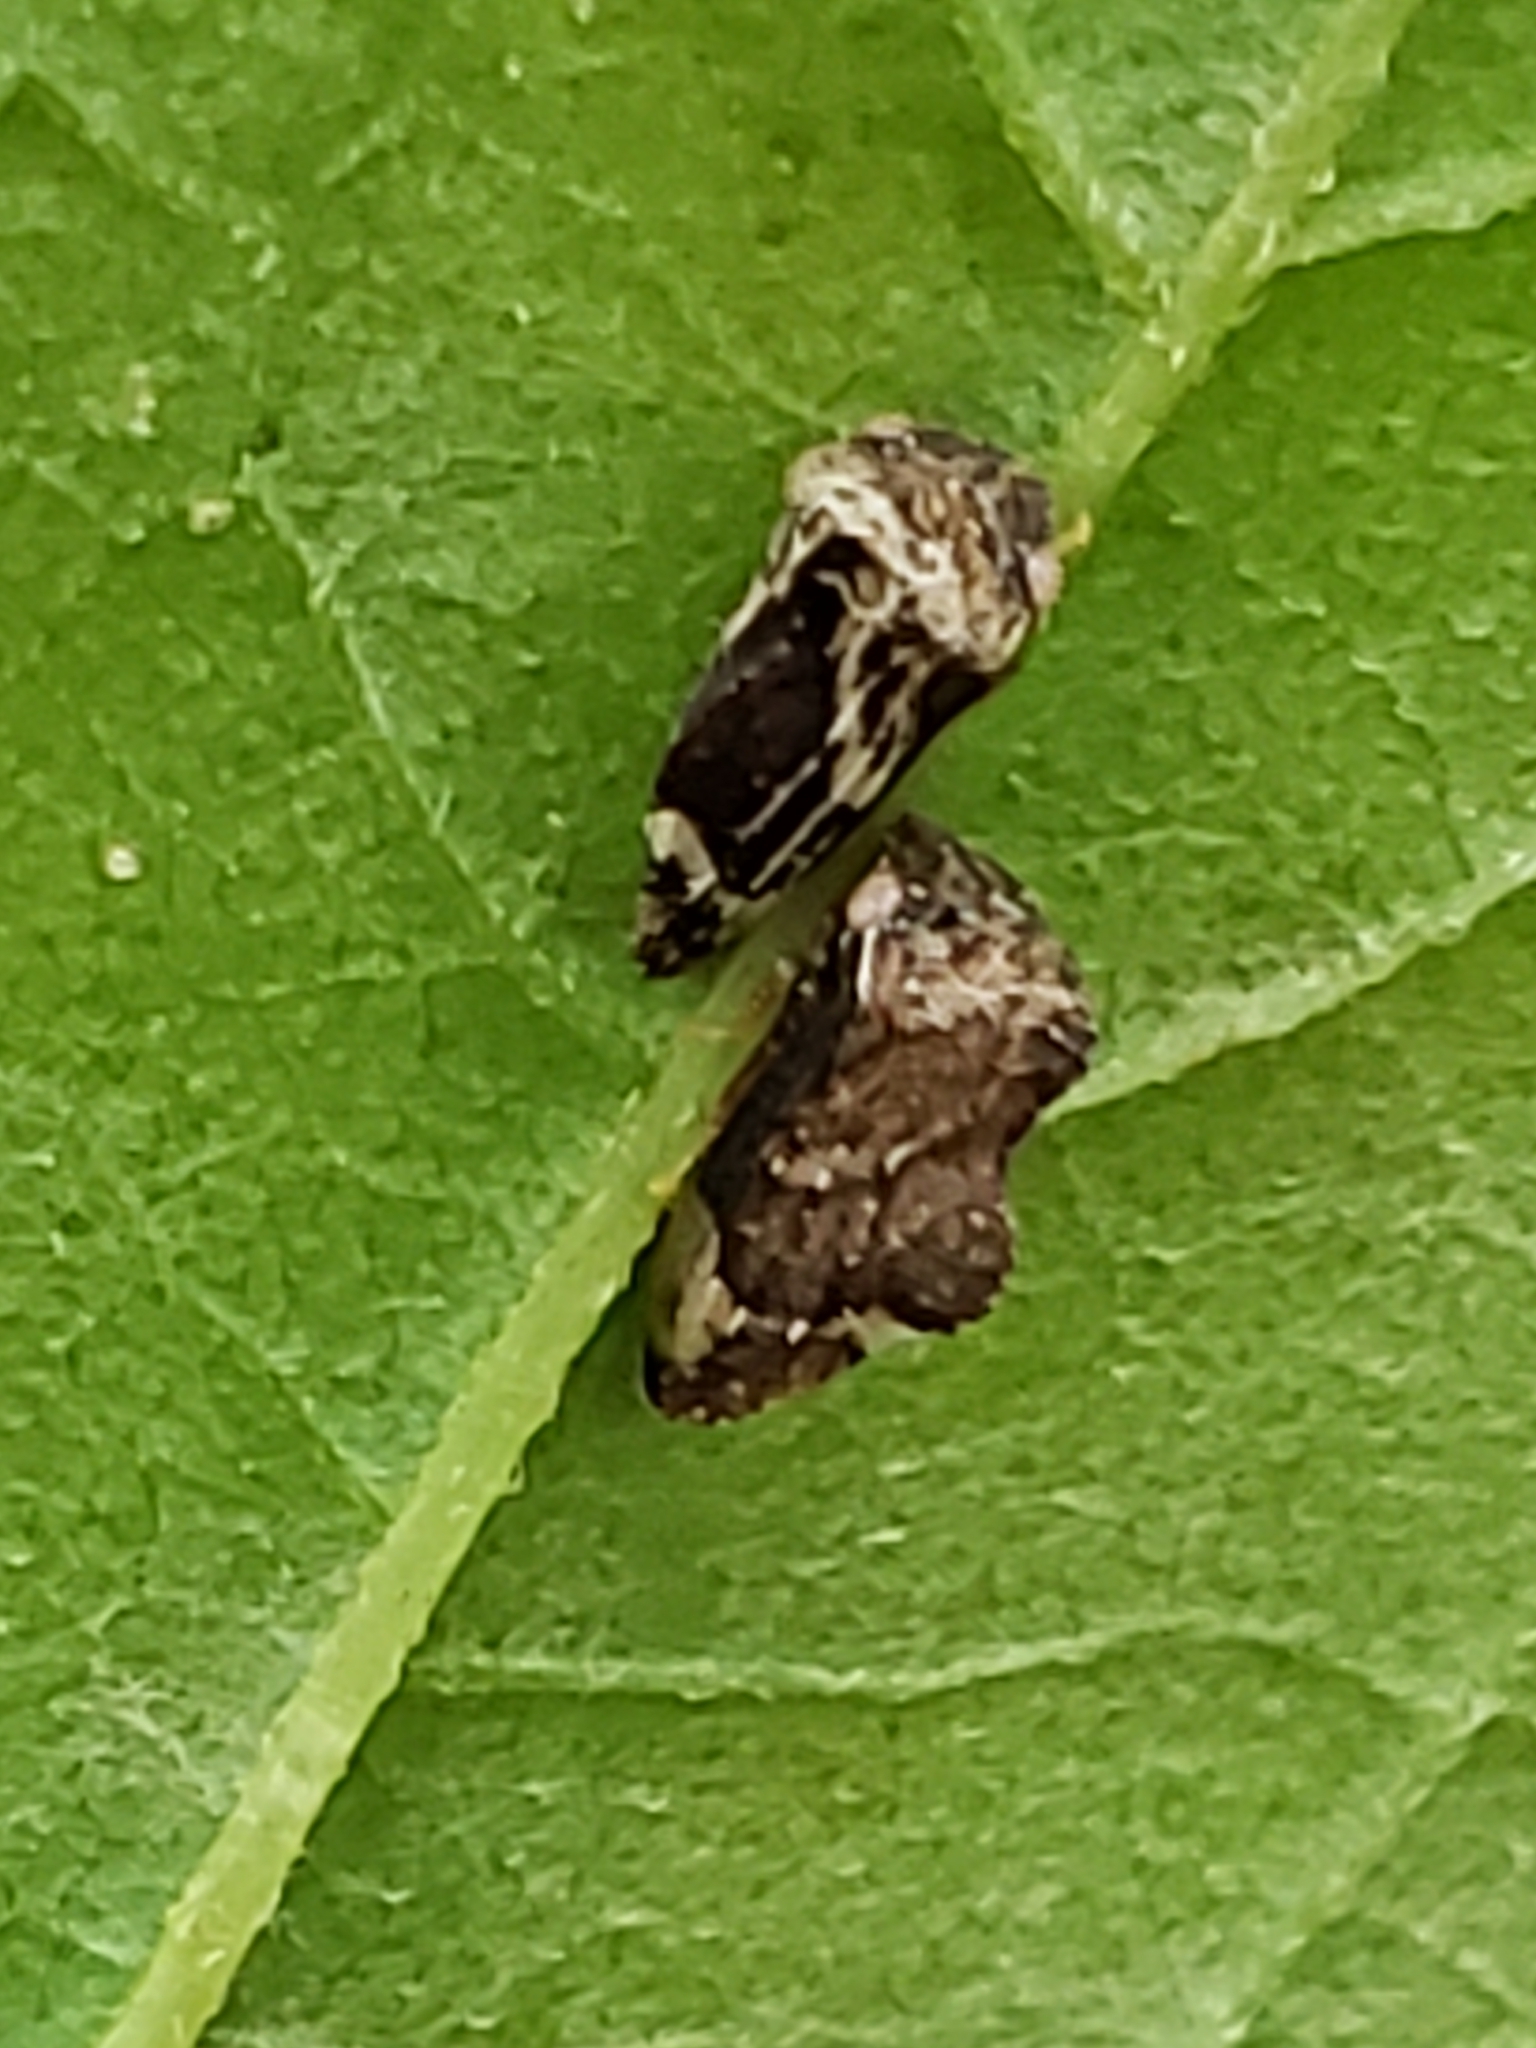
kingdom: Animalia
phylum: Arthropoda
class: Insecta
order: Hemiptera
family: Membracidae
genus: Entylia
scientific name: Entylia carinata
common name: Keeled treehopper
